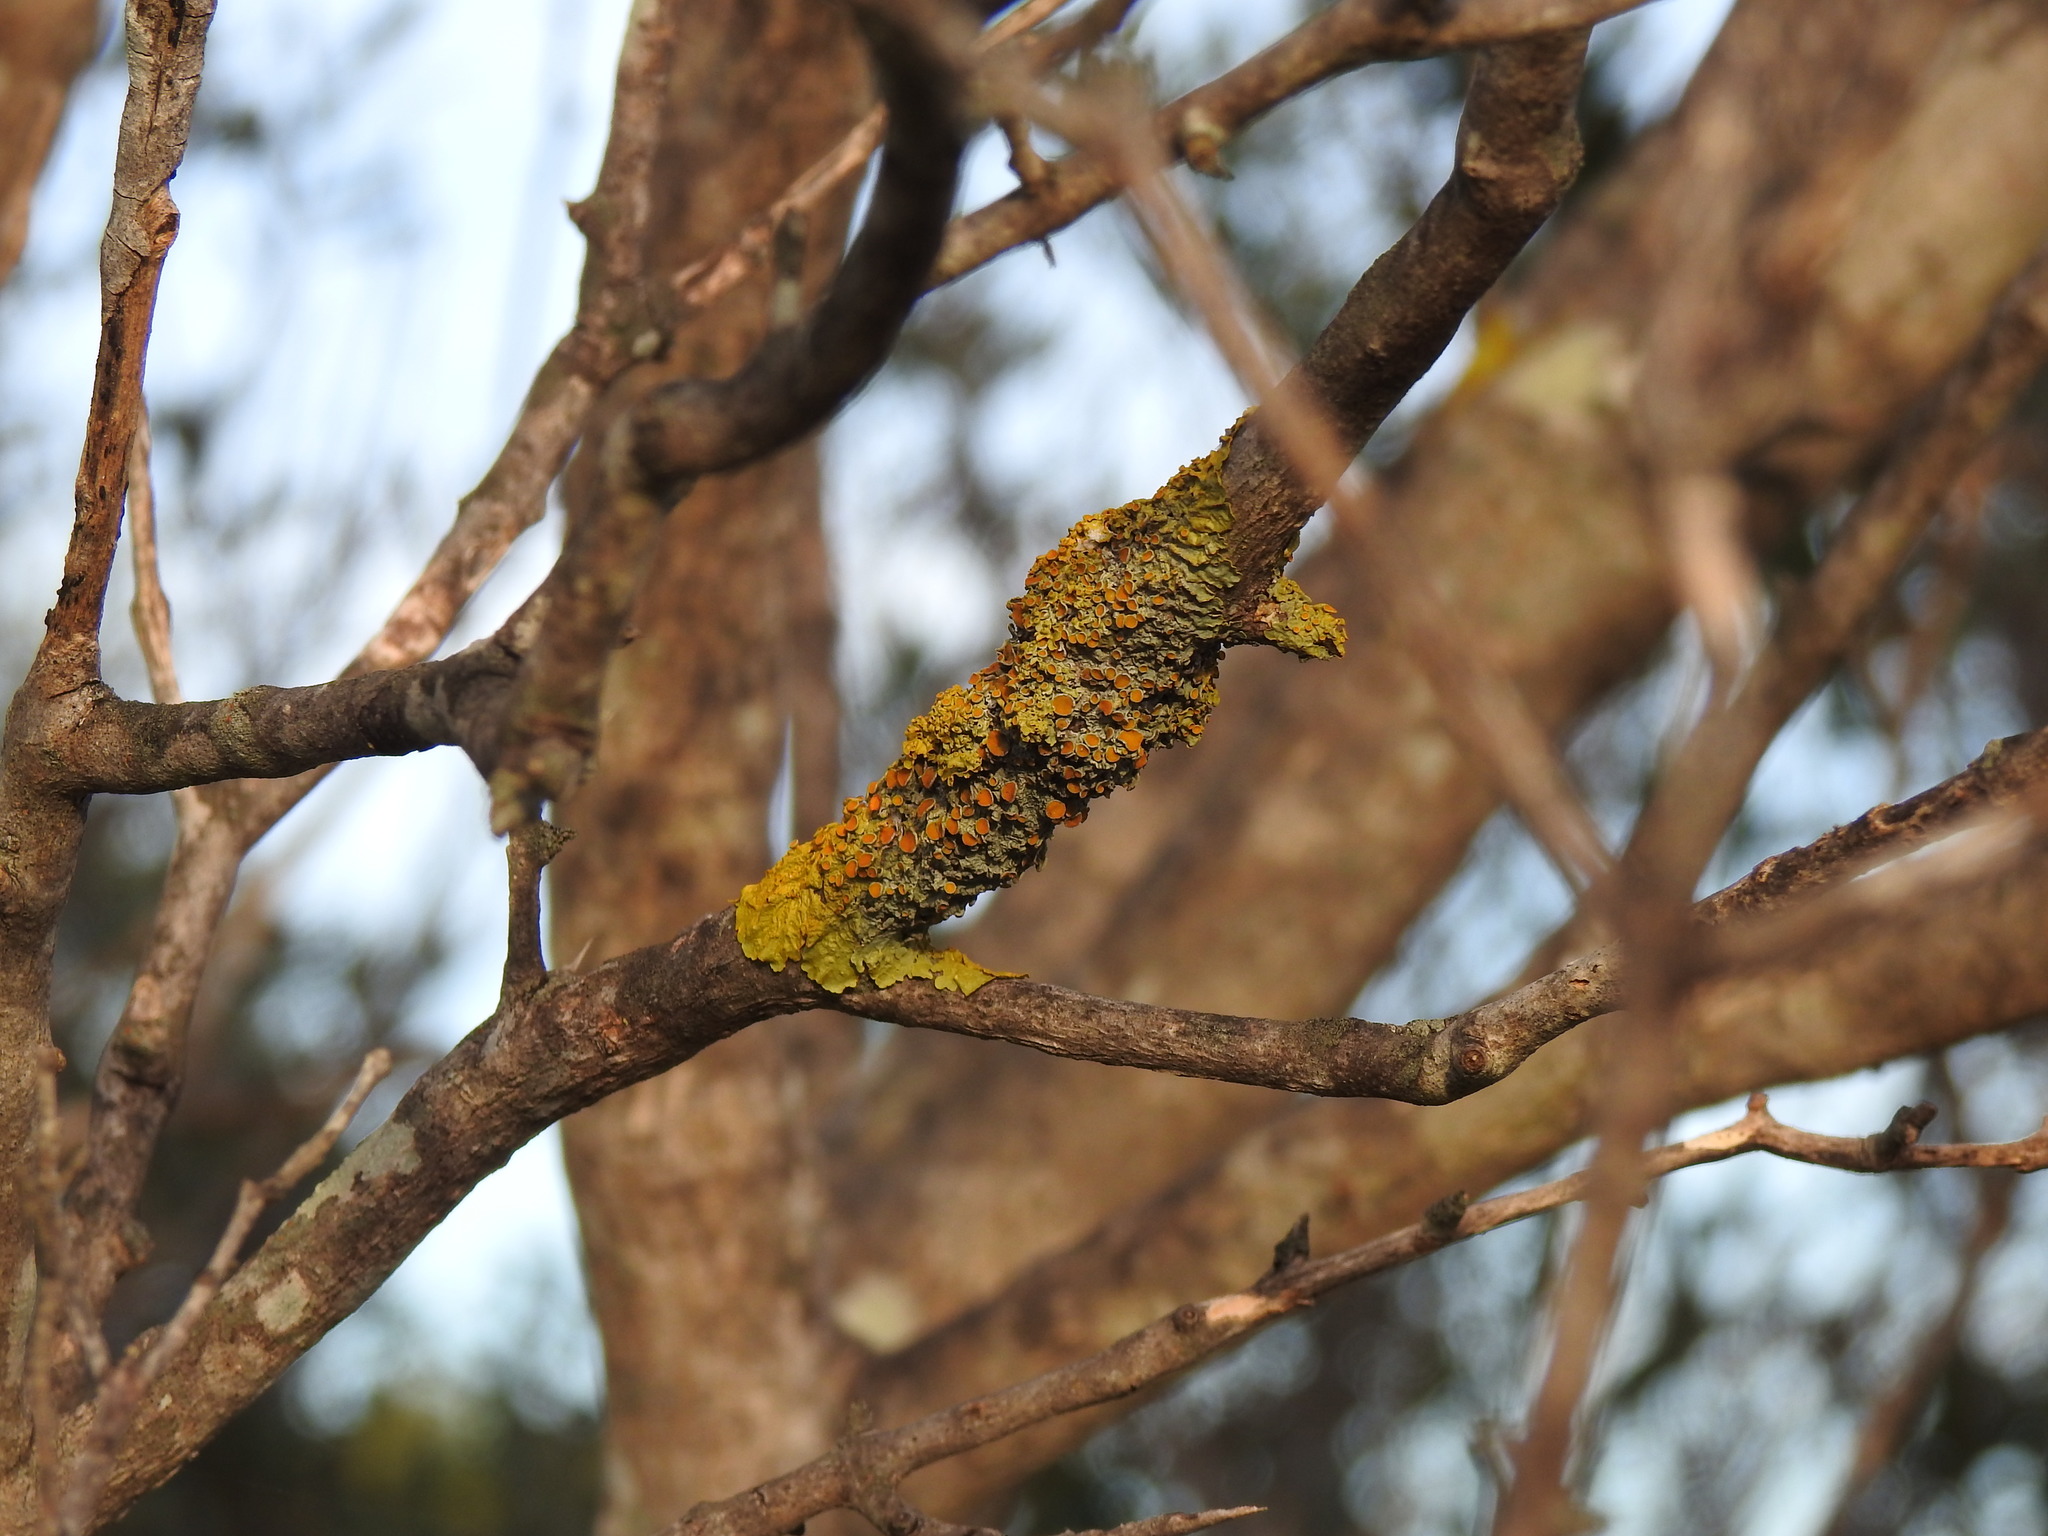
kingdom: Fungi
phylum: Ascomycota
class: Lecanoromycetes
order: Teloschistales
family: Teloschistaceae
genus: Xanthoria
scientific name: Xanthoria parietina
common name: Common orange lichen
